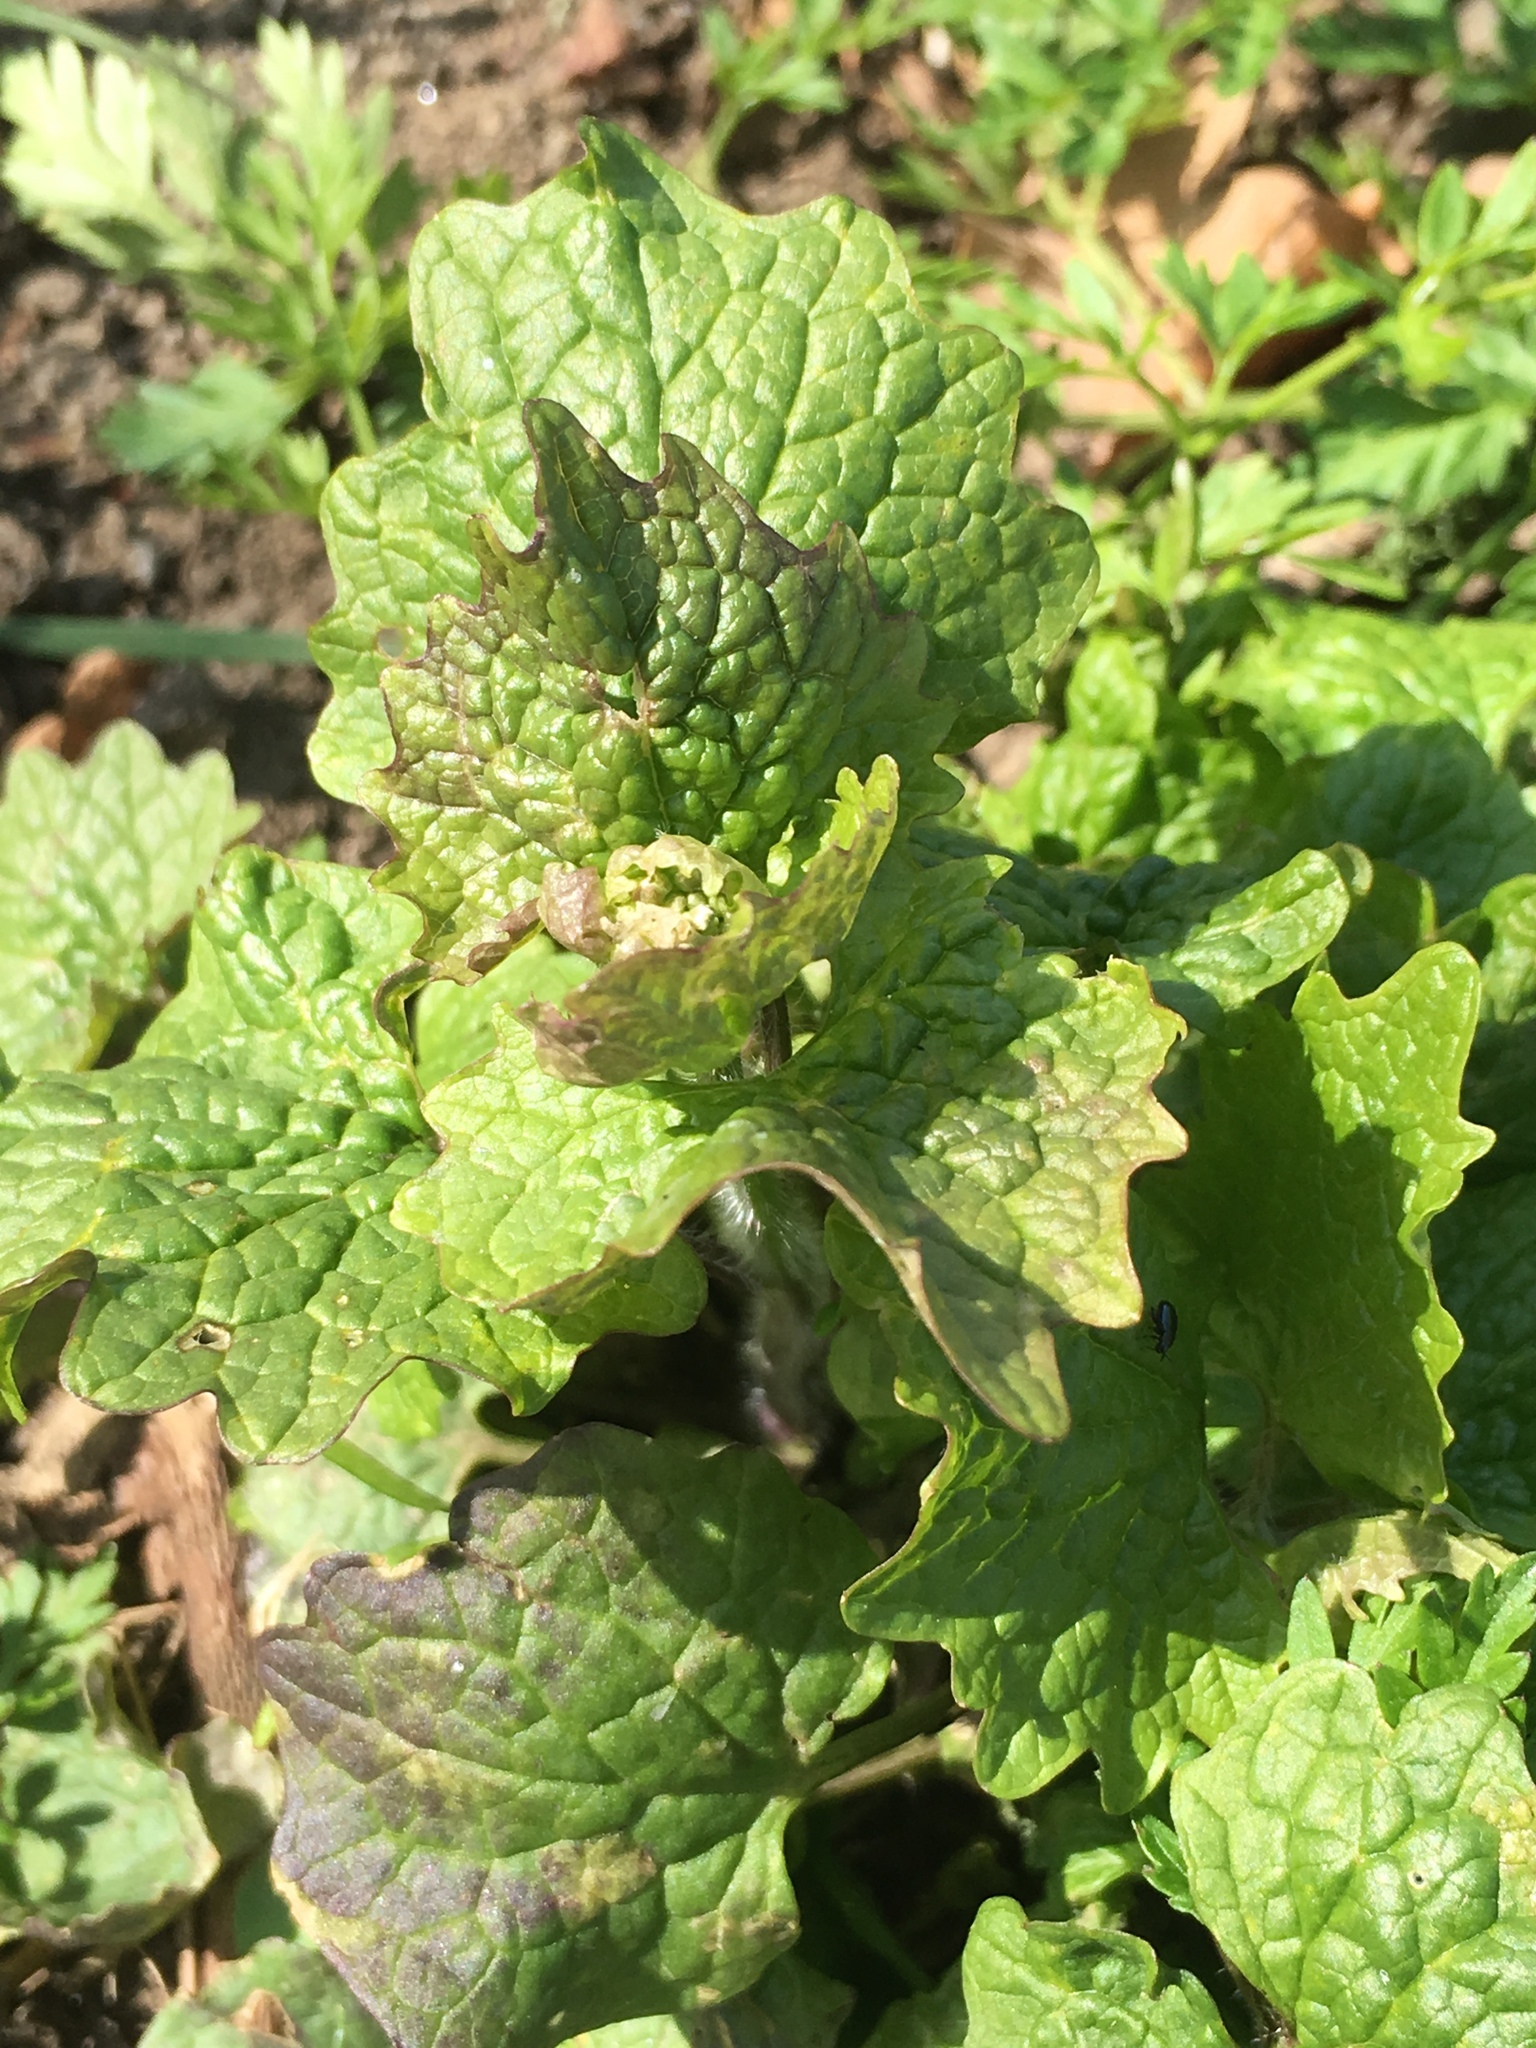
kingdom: Plantae
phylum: Tracheophyta
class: Magnoliopsida
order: Brassicales
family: Brassicaceae
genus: Alliaria
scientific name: Alliaria petiolata
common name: Garlic mustard
